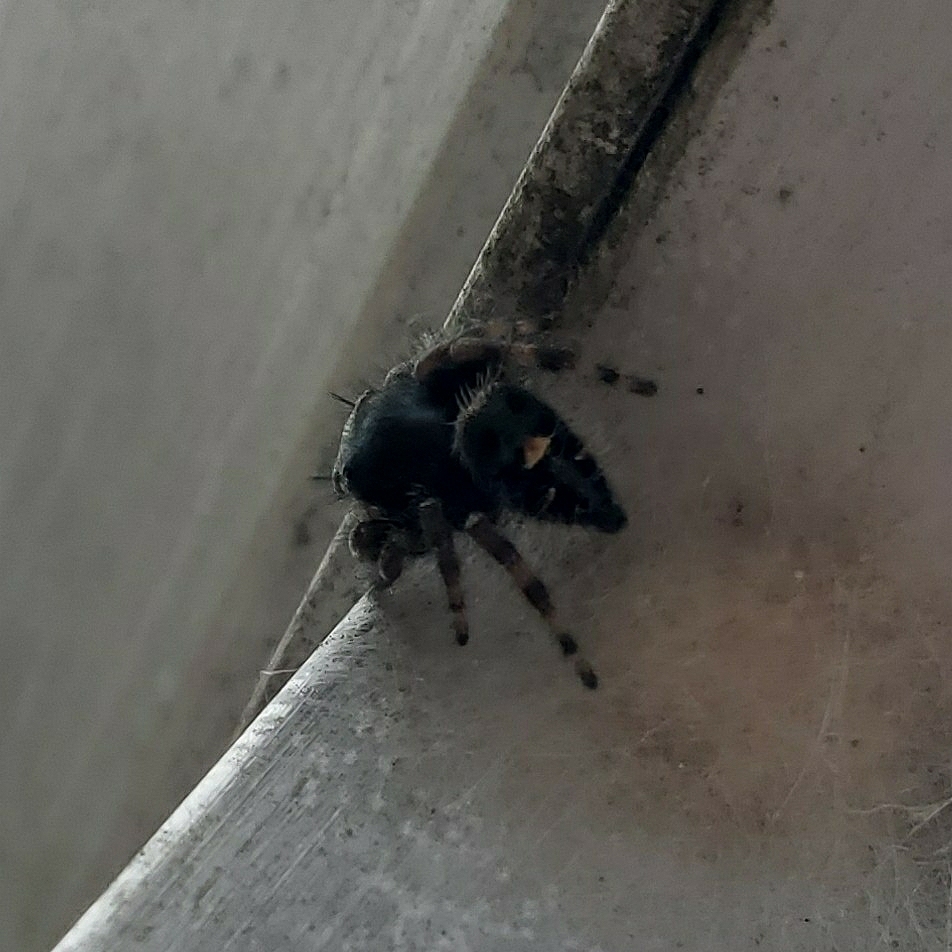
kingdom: Animalia
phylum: Arthropoda
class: Arachnida
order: Araneae
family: Salticidae
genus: Phidippus
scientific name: Phidippus audax
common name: Bold jumper
